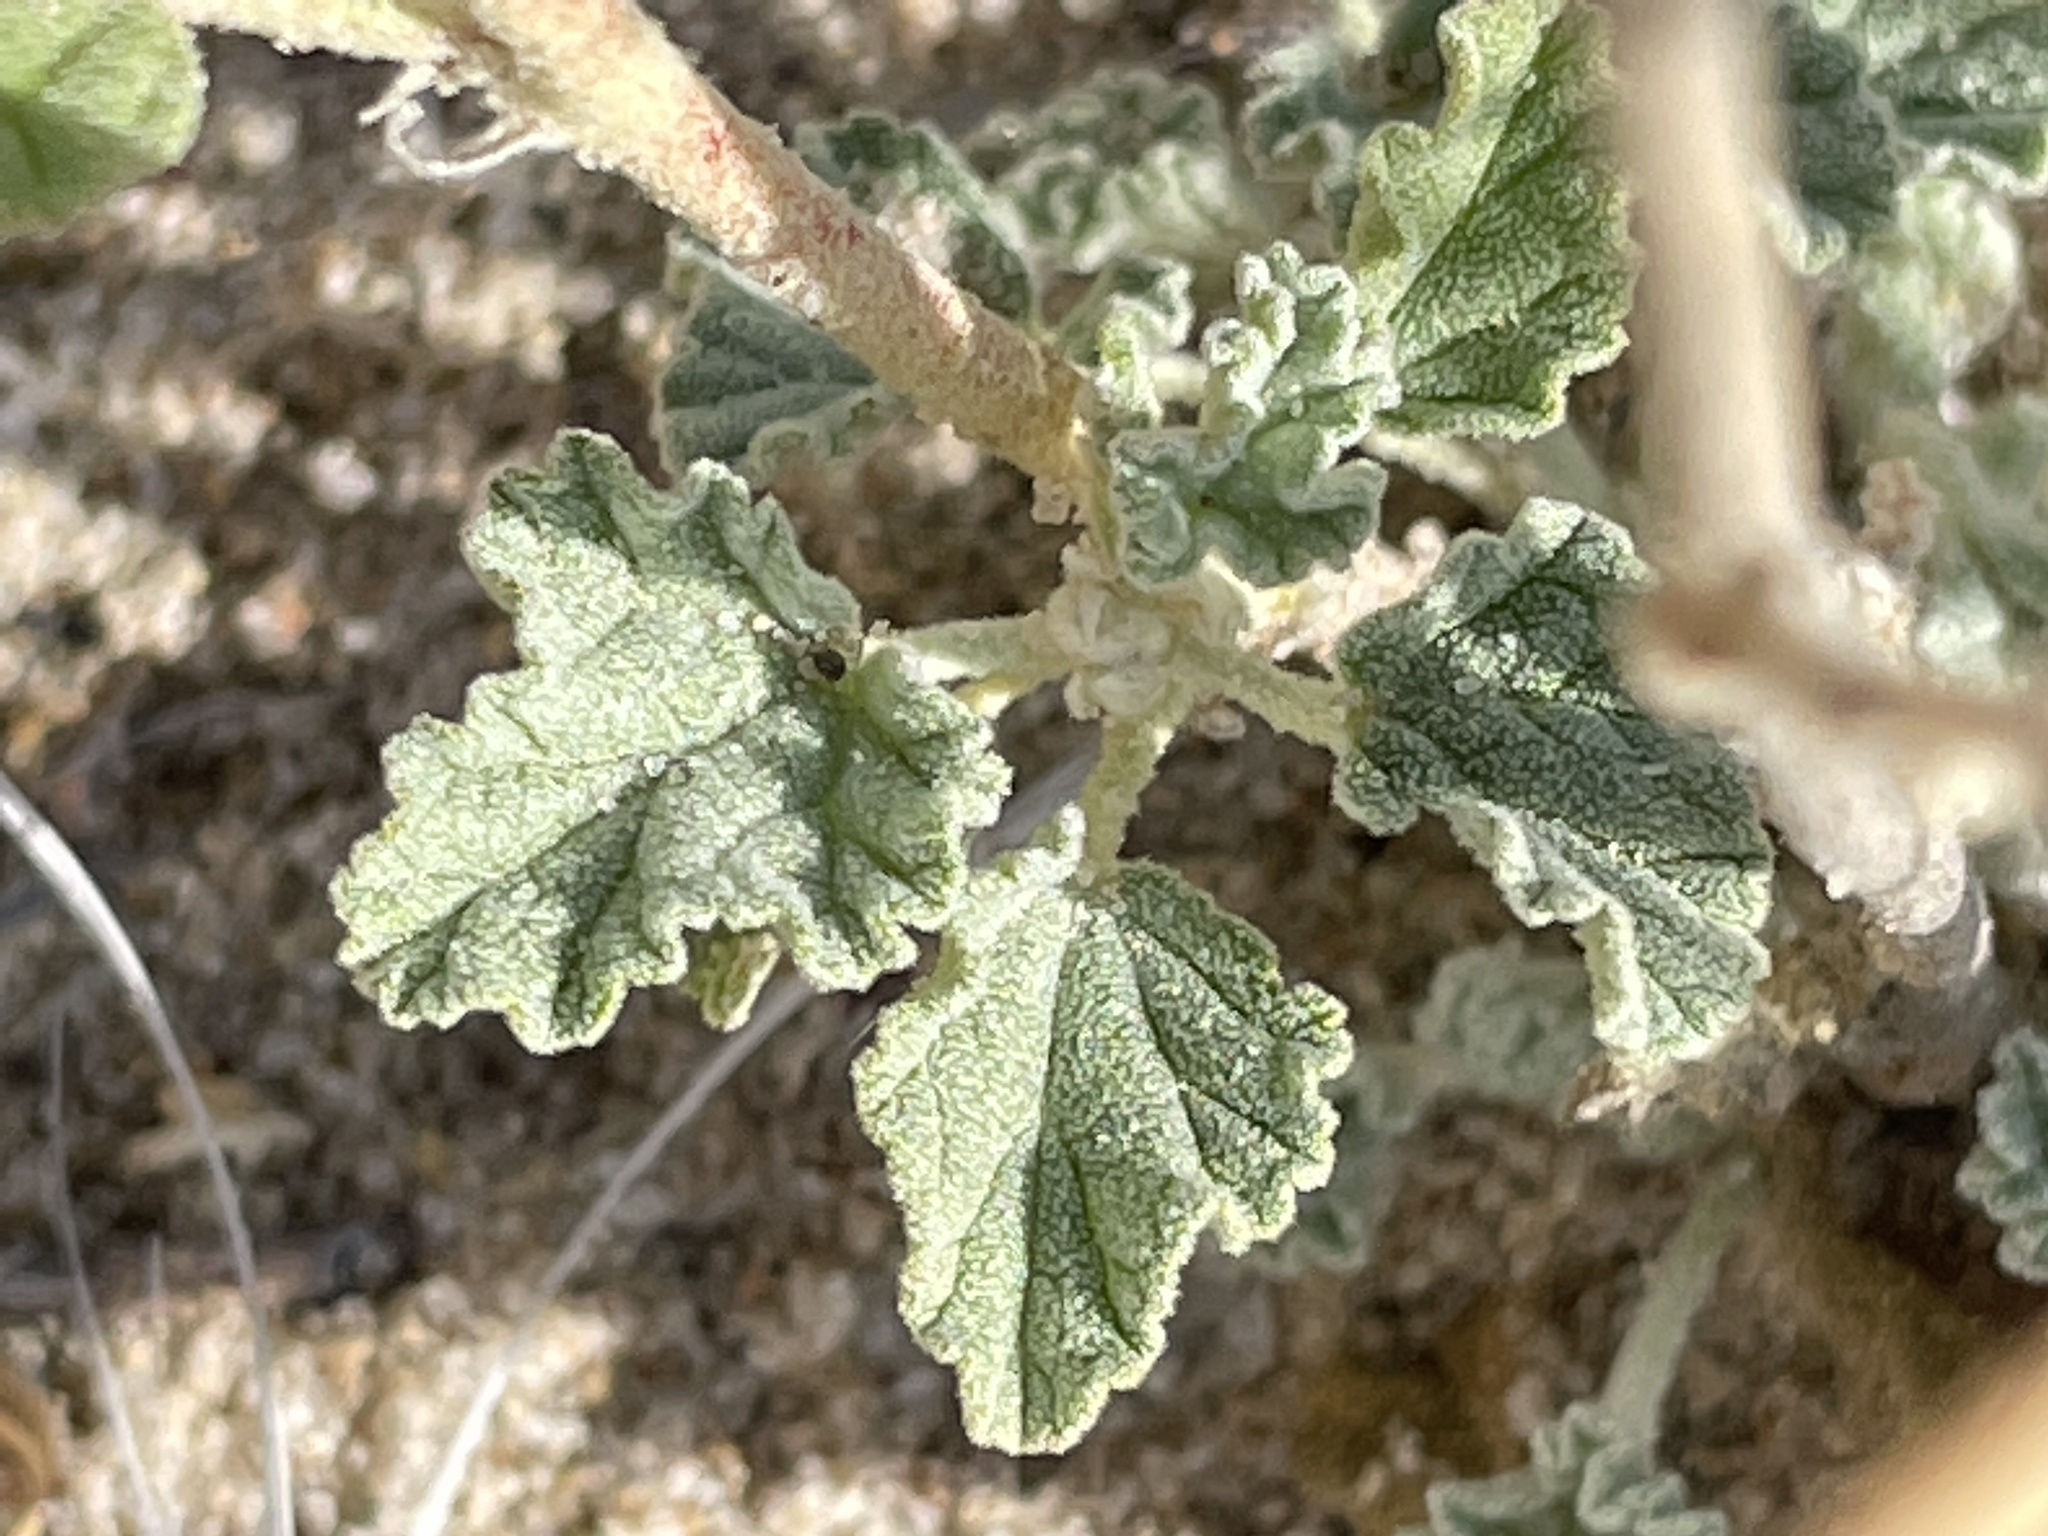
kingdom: Plantae
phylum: Tracheophyta
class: Magnoliopsida
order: Malvales
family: Malvaceae
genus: Sphaeralcea
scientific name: Sphaeralcea parvifolia
